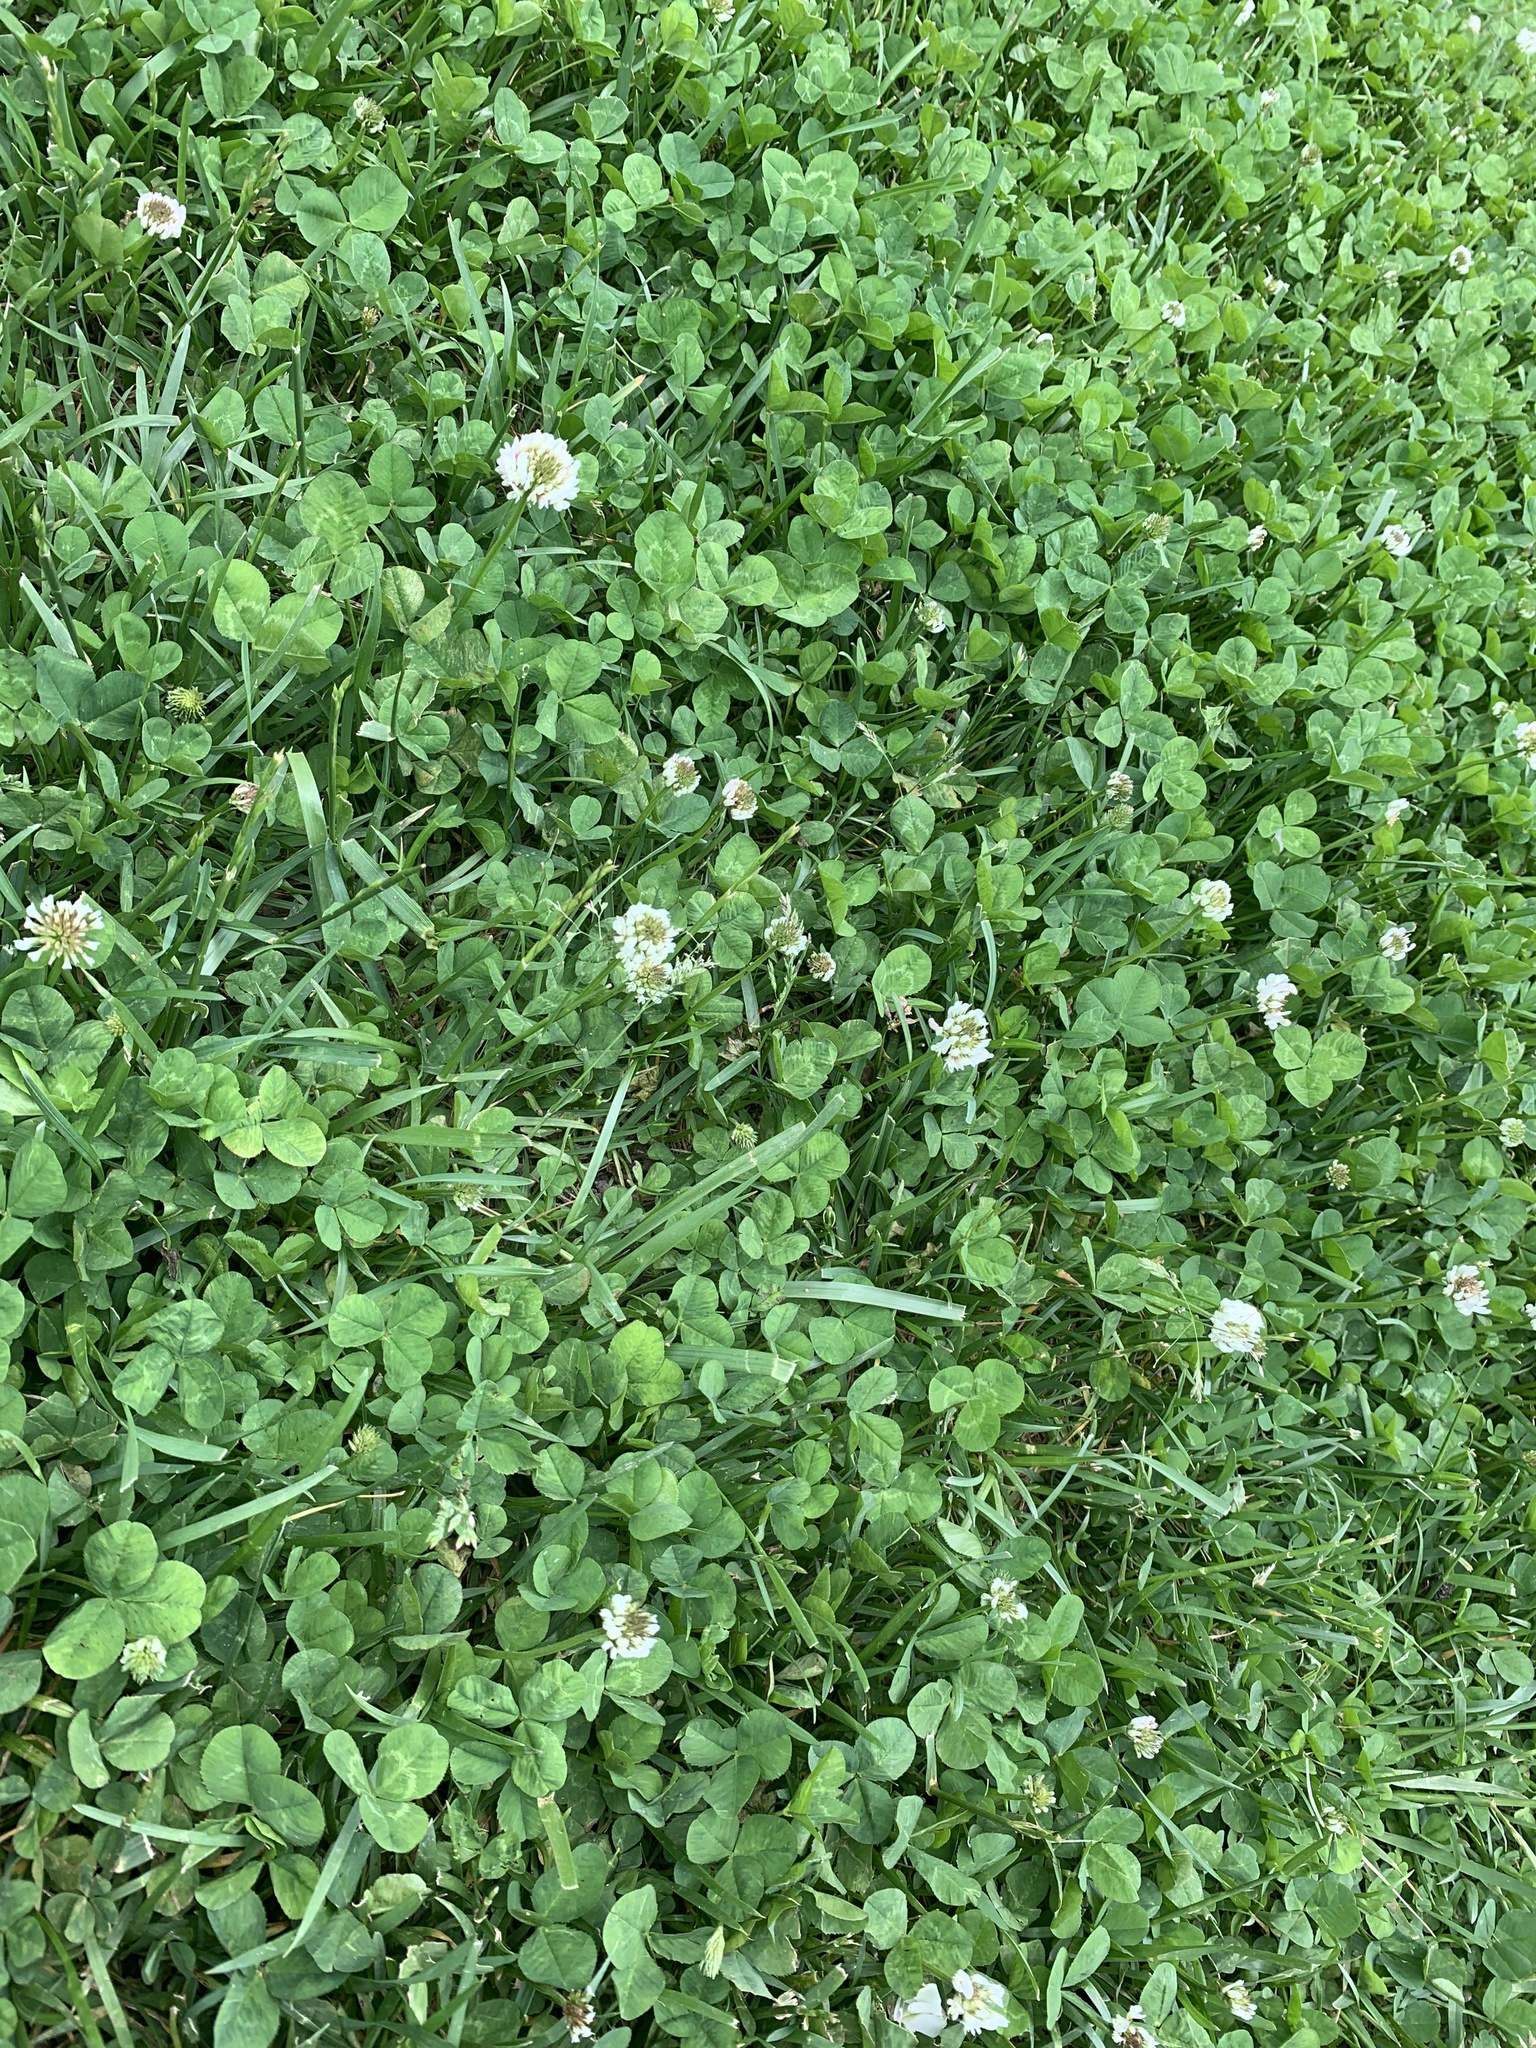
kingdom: Plantae
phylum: Tracheophyta
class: Magnoliopsida
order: Fabales
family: Fabaceae
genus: Trifolium
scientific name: Trifolium repens
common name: White clover
